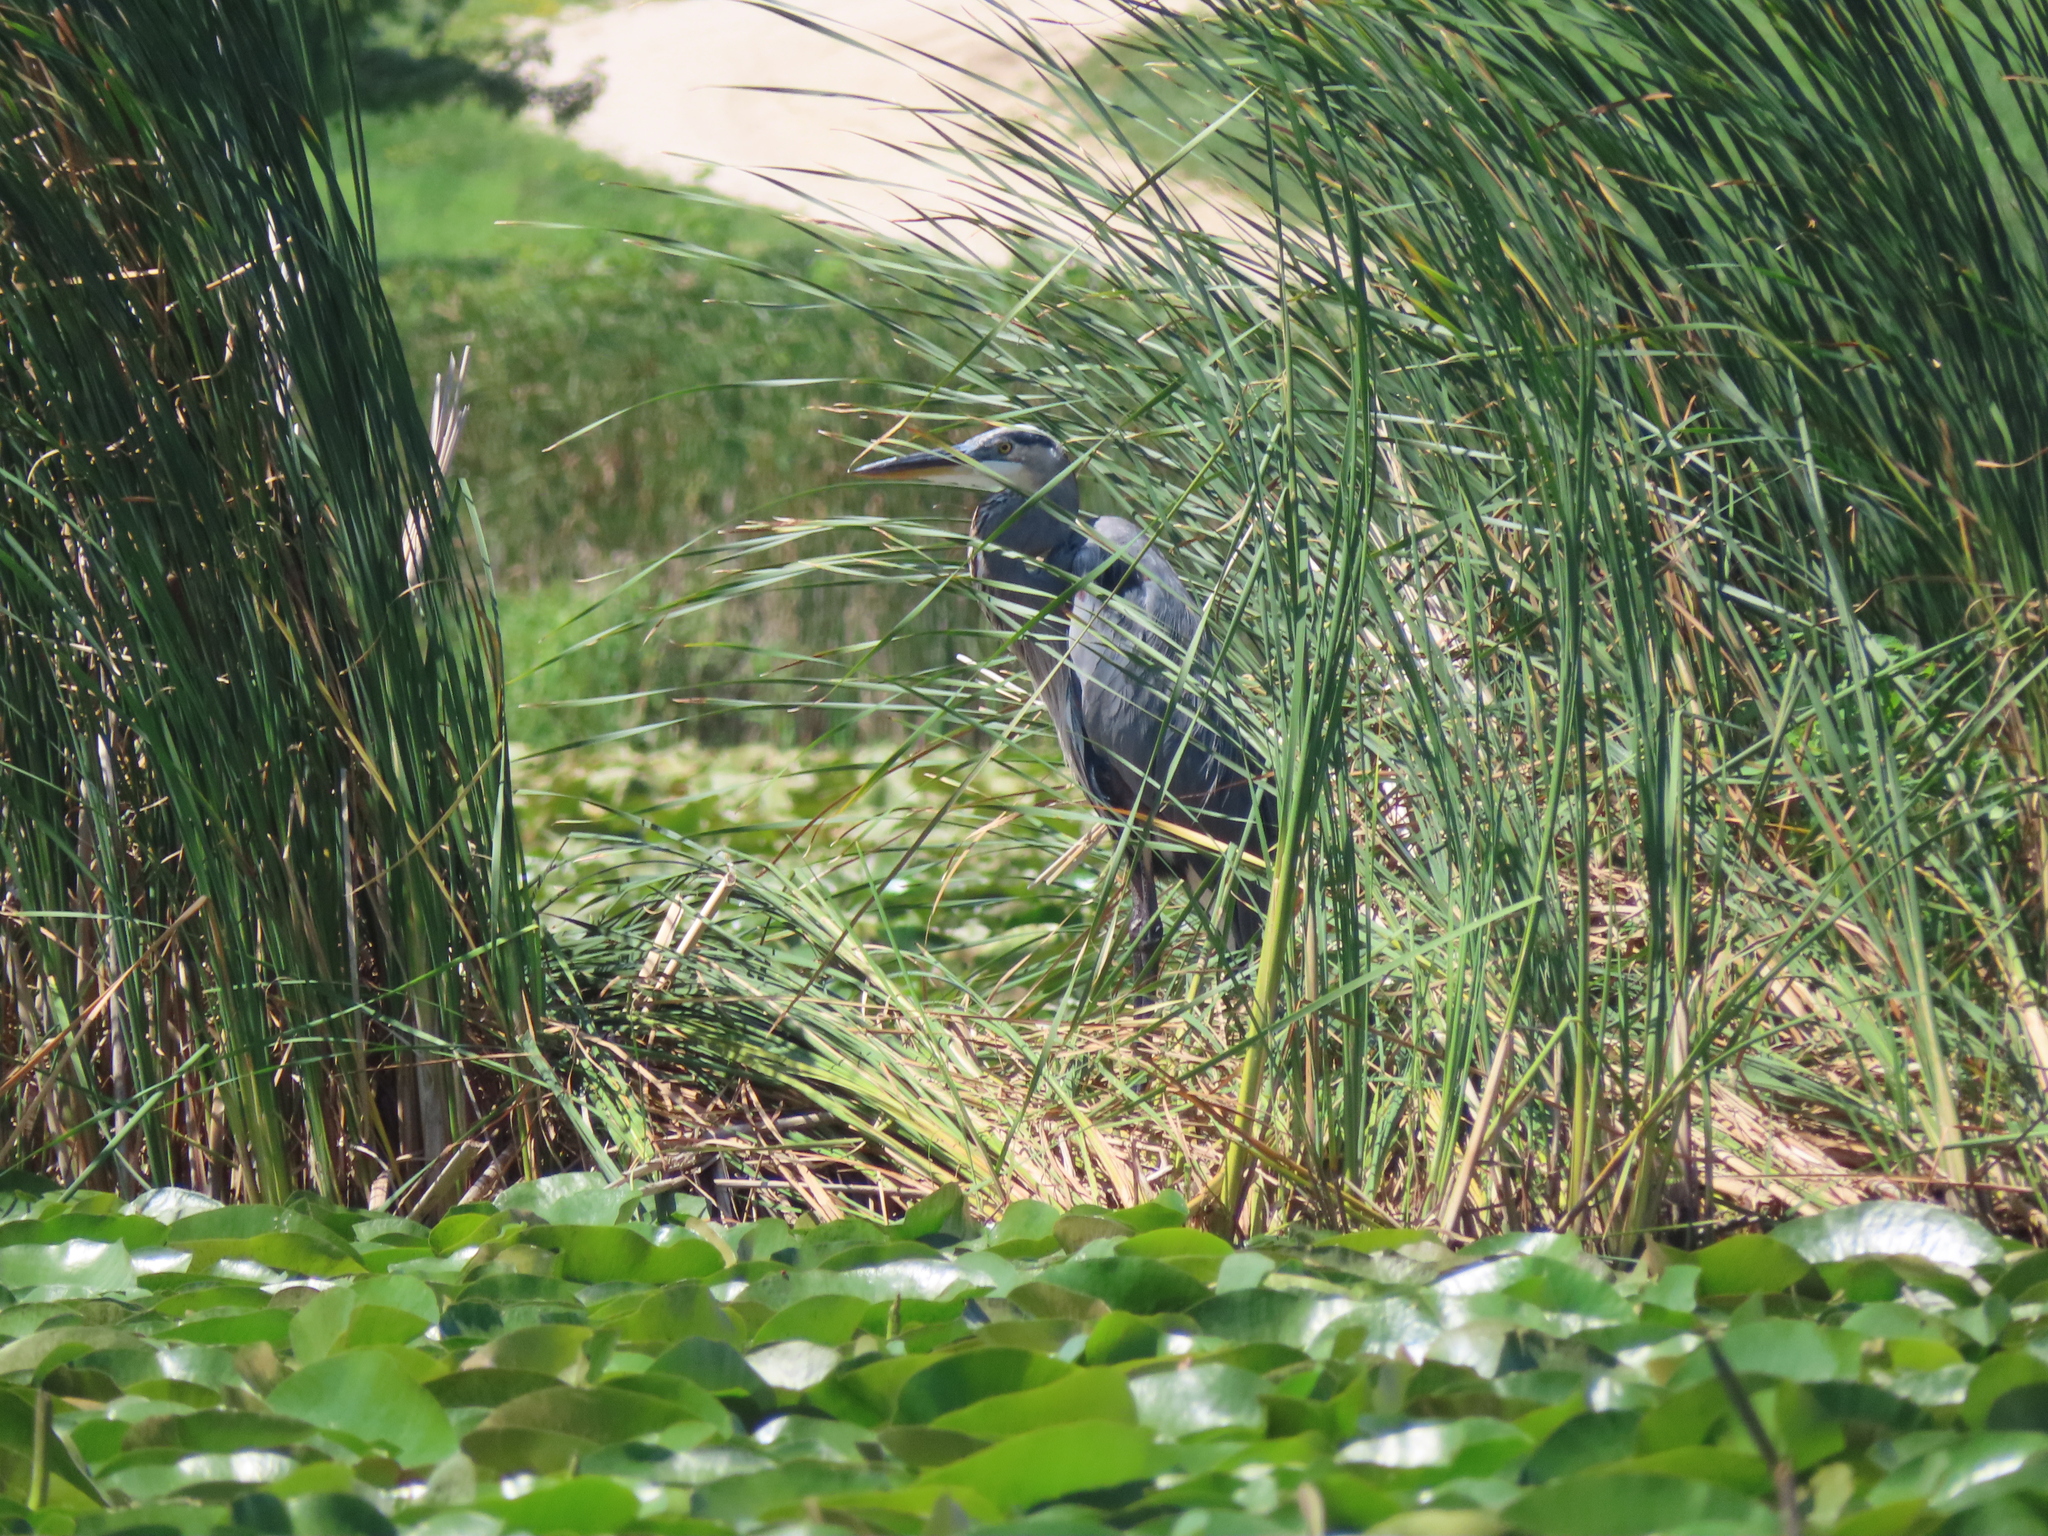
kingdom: Animalia
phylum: Chordata
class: Aves
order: Pelecaniformes
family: Ardeidae
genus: Ardea
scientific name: Ardea herodias
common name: Great blue heron
